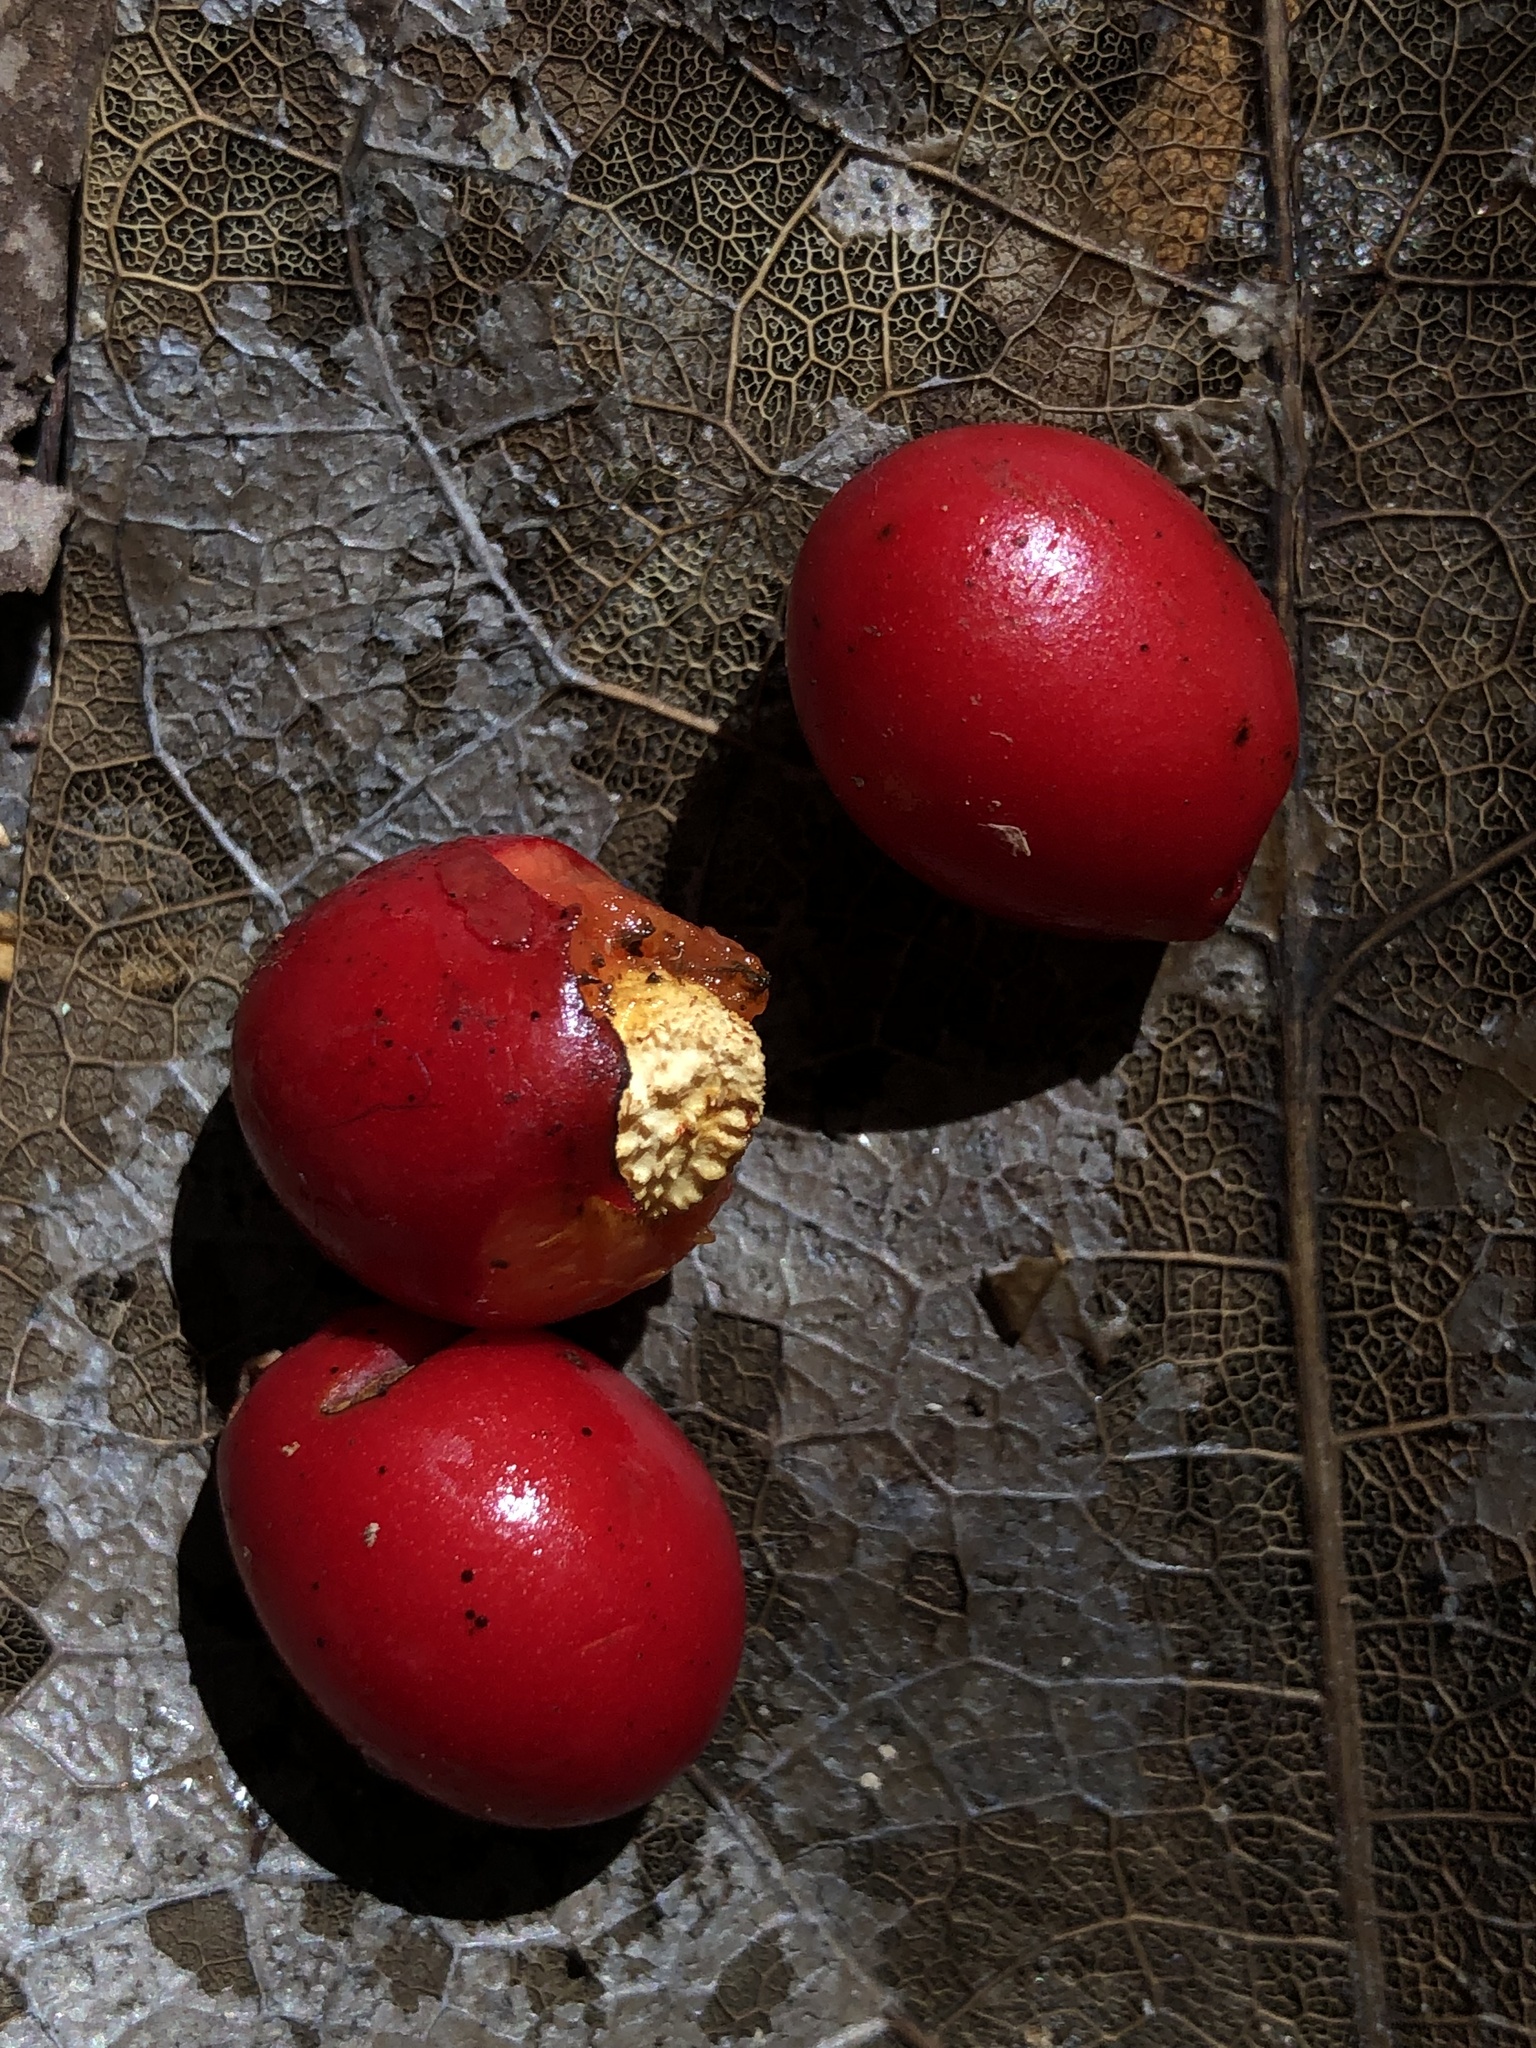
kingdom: Plantae
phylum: Tracheophyta
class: Magnoliopsida
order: Ranunculales
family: Menispermaceae
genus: Tinospora
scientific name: Tinospora tinosporoides
